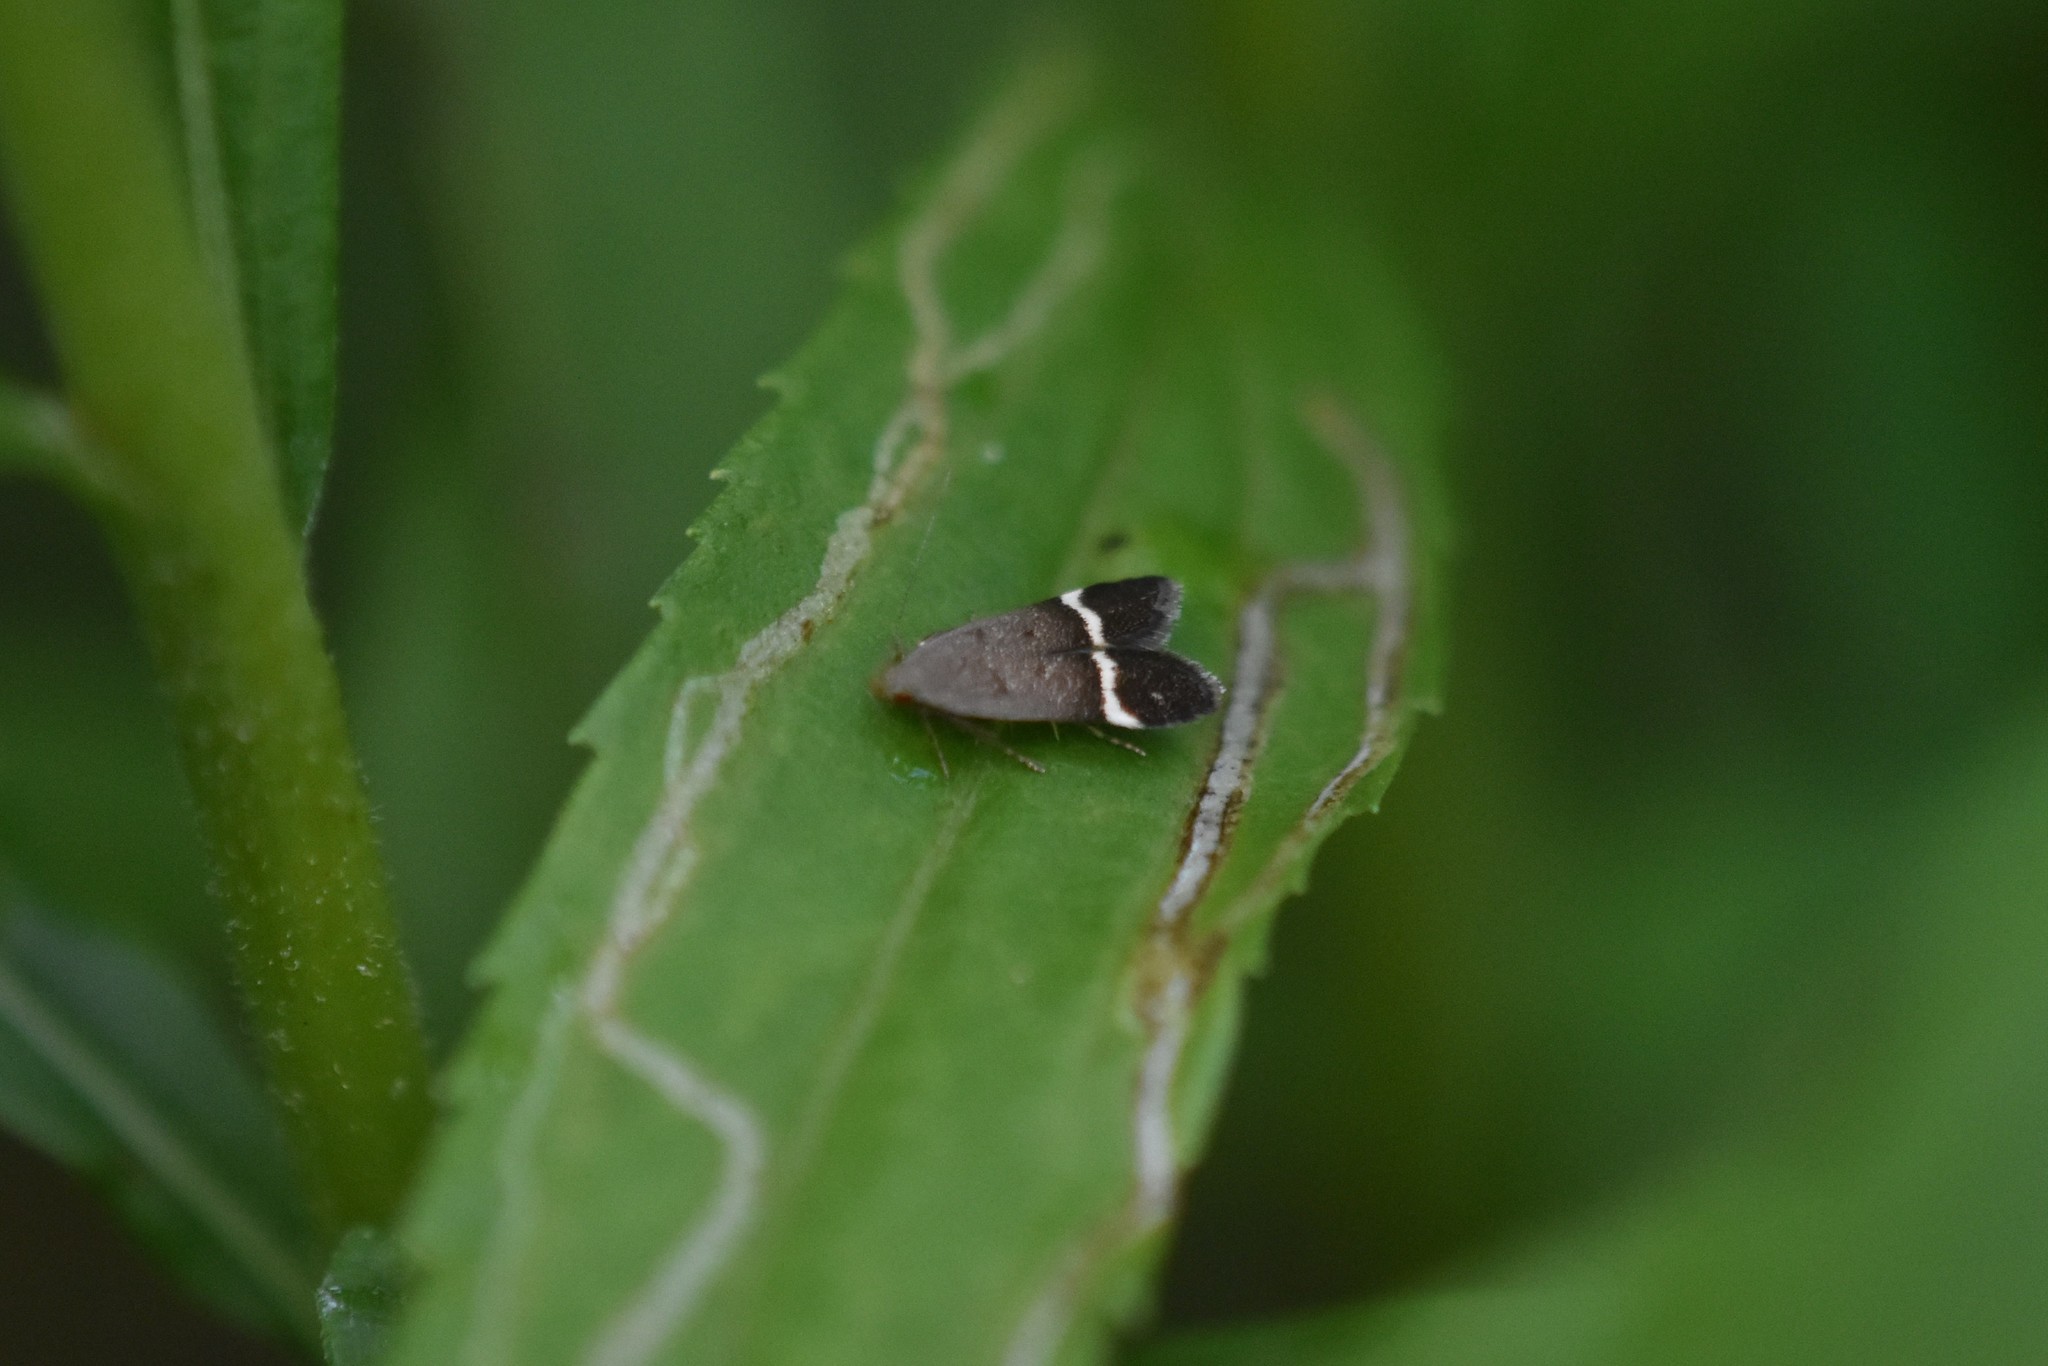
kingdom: Animalia
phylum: Arthropoda
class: Insecta
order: Lepidoptera
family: Gelechiidae
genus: Anacampsis
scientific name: Anacampsis agrimoniella
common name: Agrimony anacampsis moth
